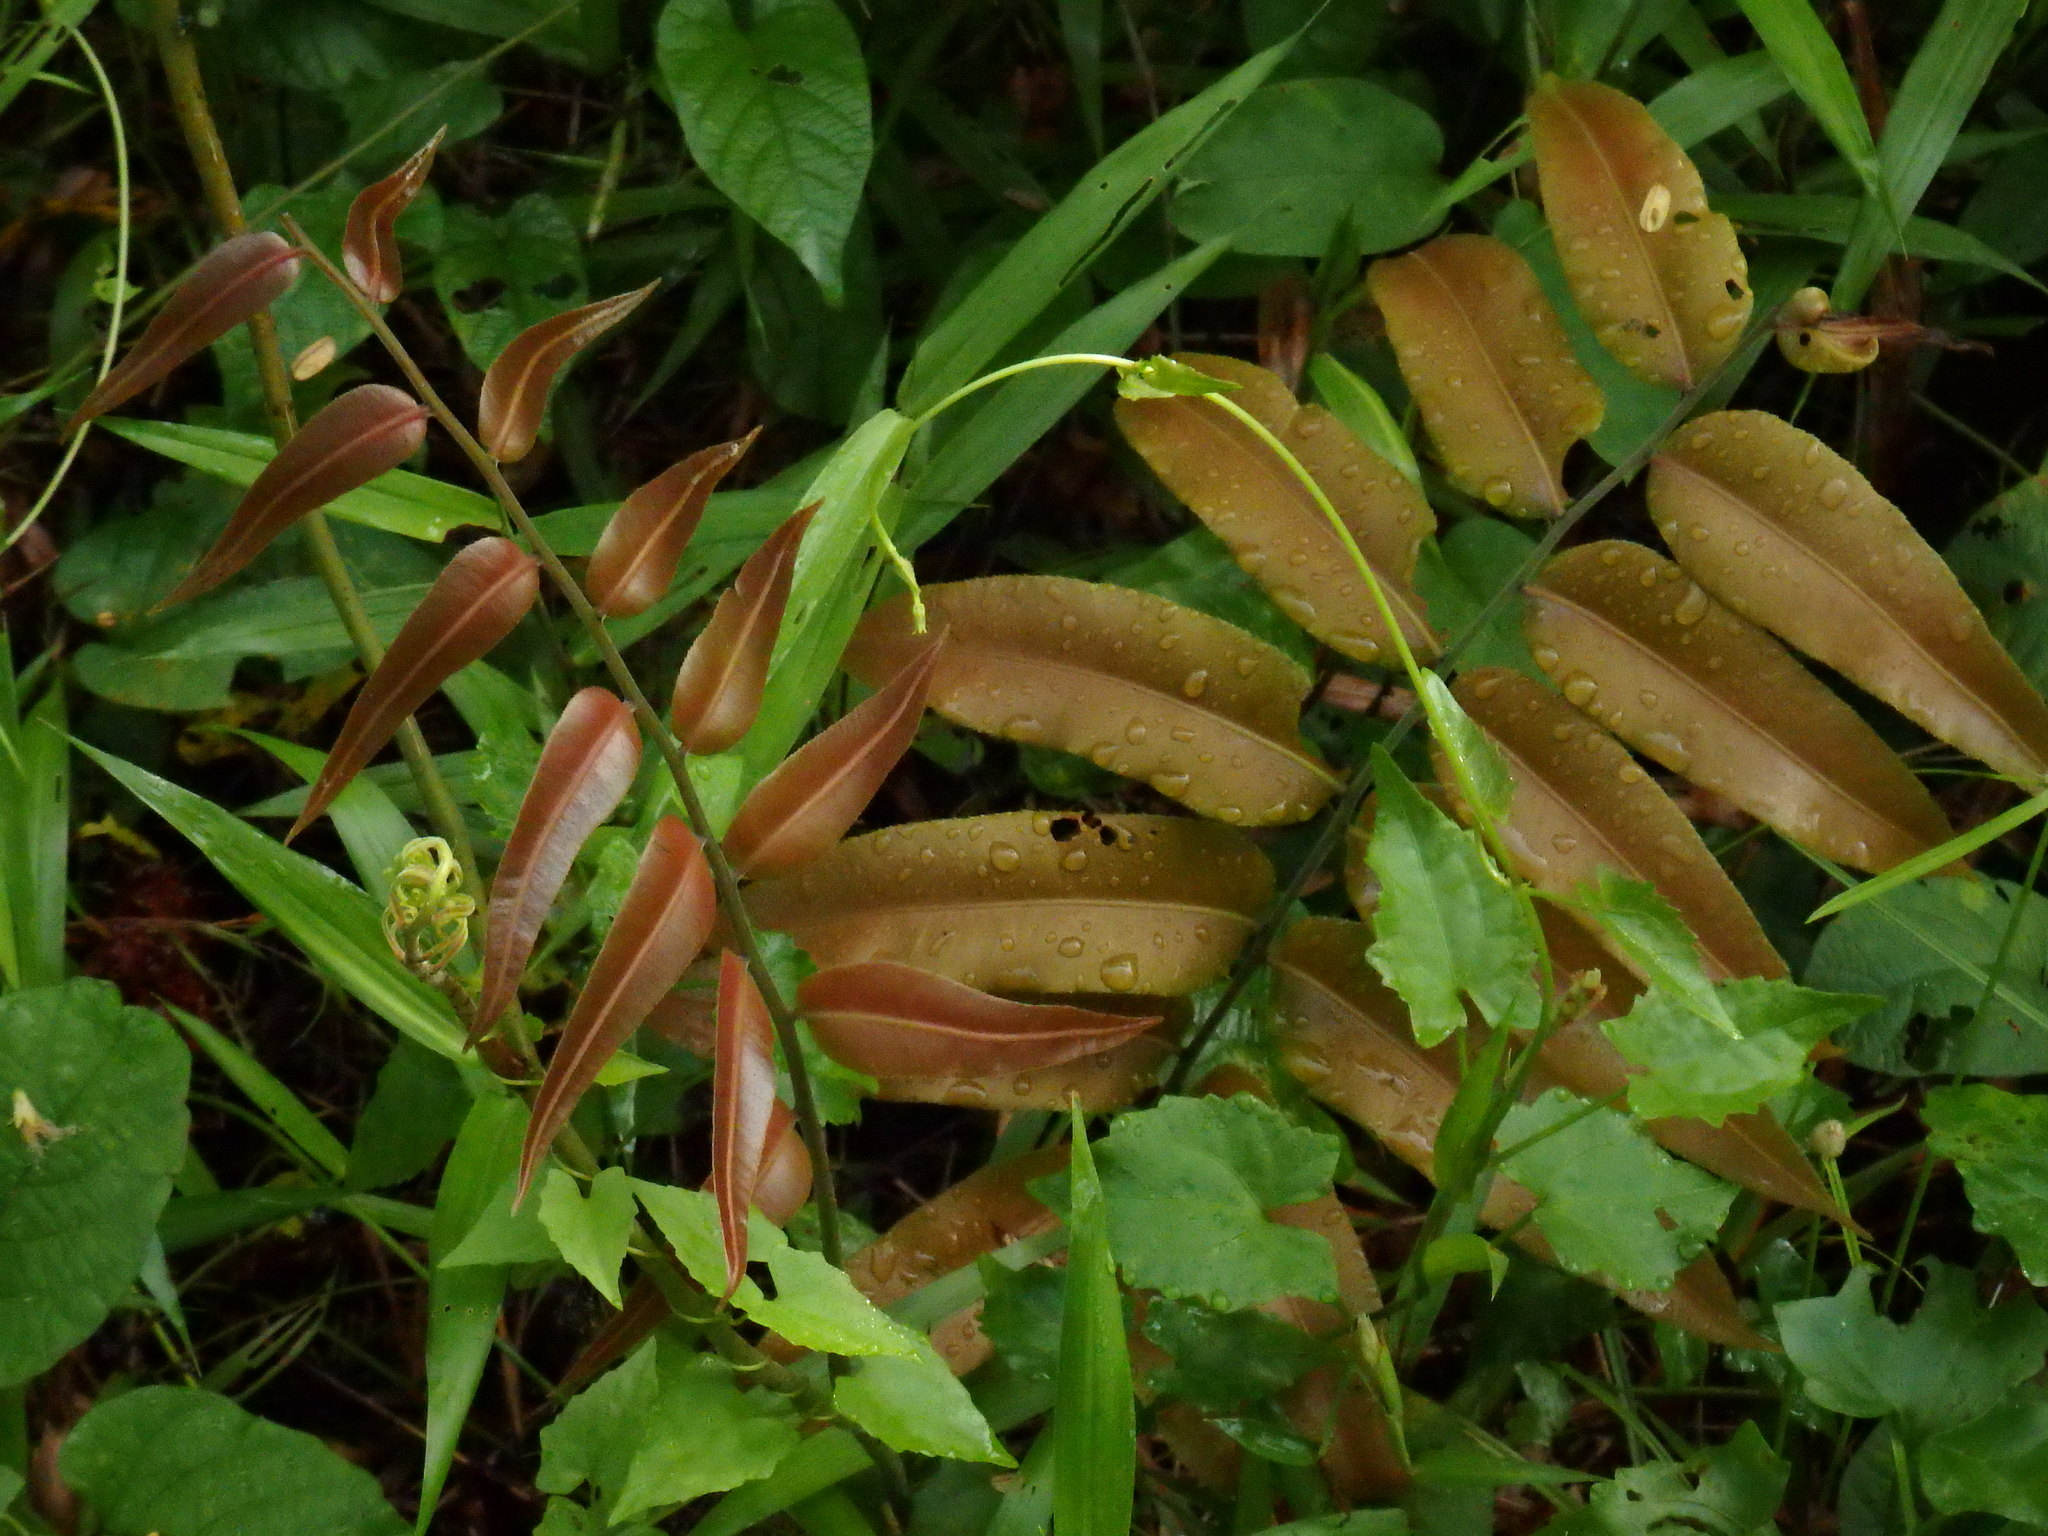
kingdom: Plantae
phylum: Tracheophyta
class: Polypodiopsida
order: Polypodiales
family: Blechnaceae
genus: Stenochlaena
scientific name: Stenochlaena palustris
